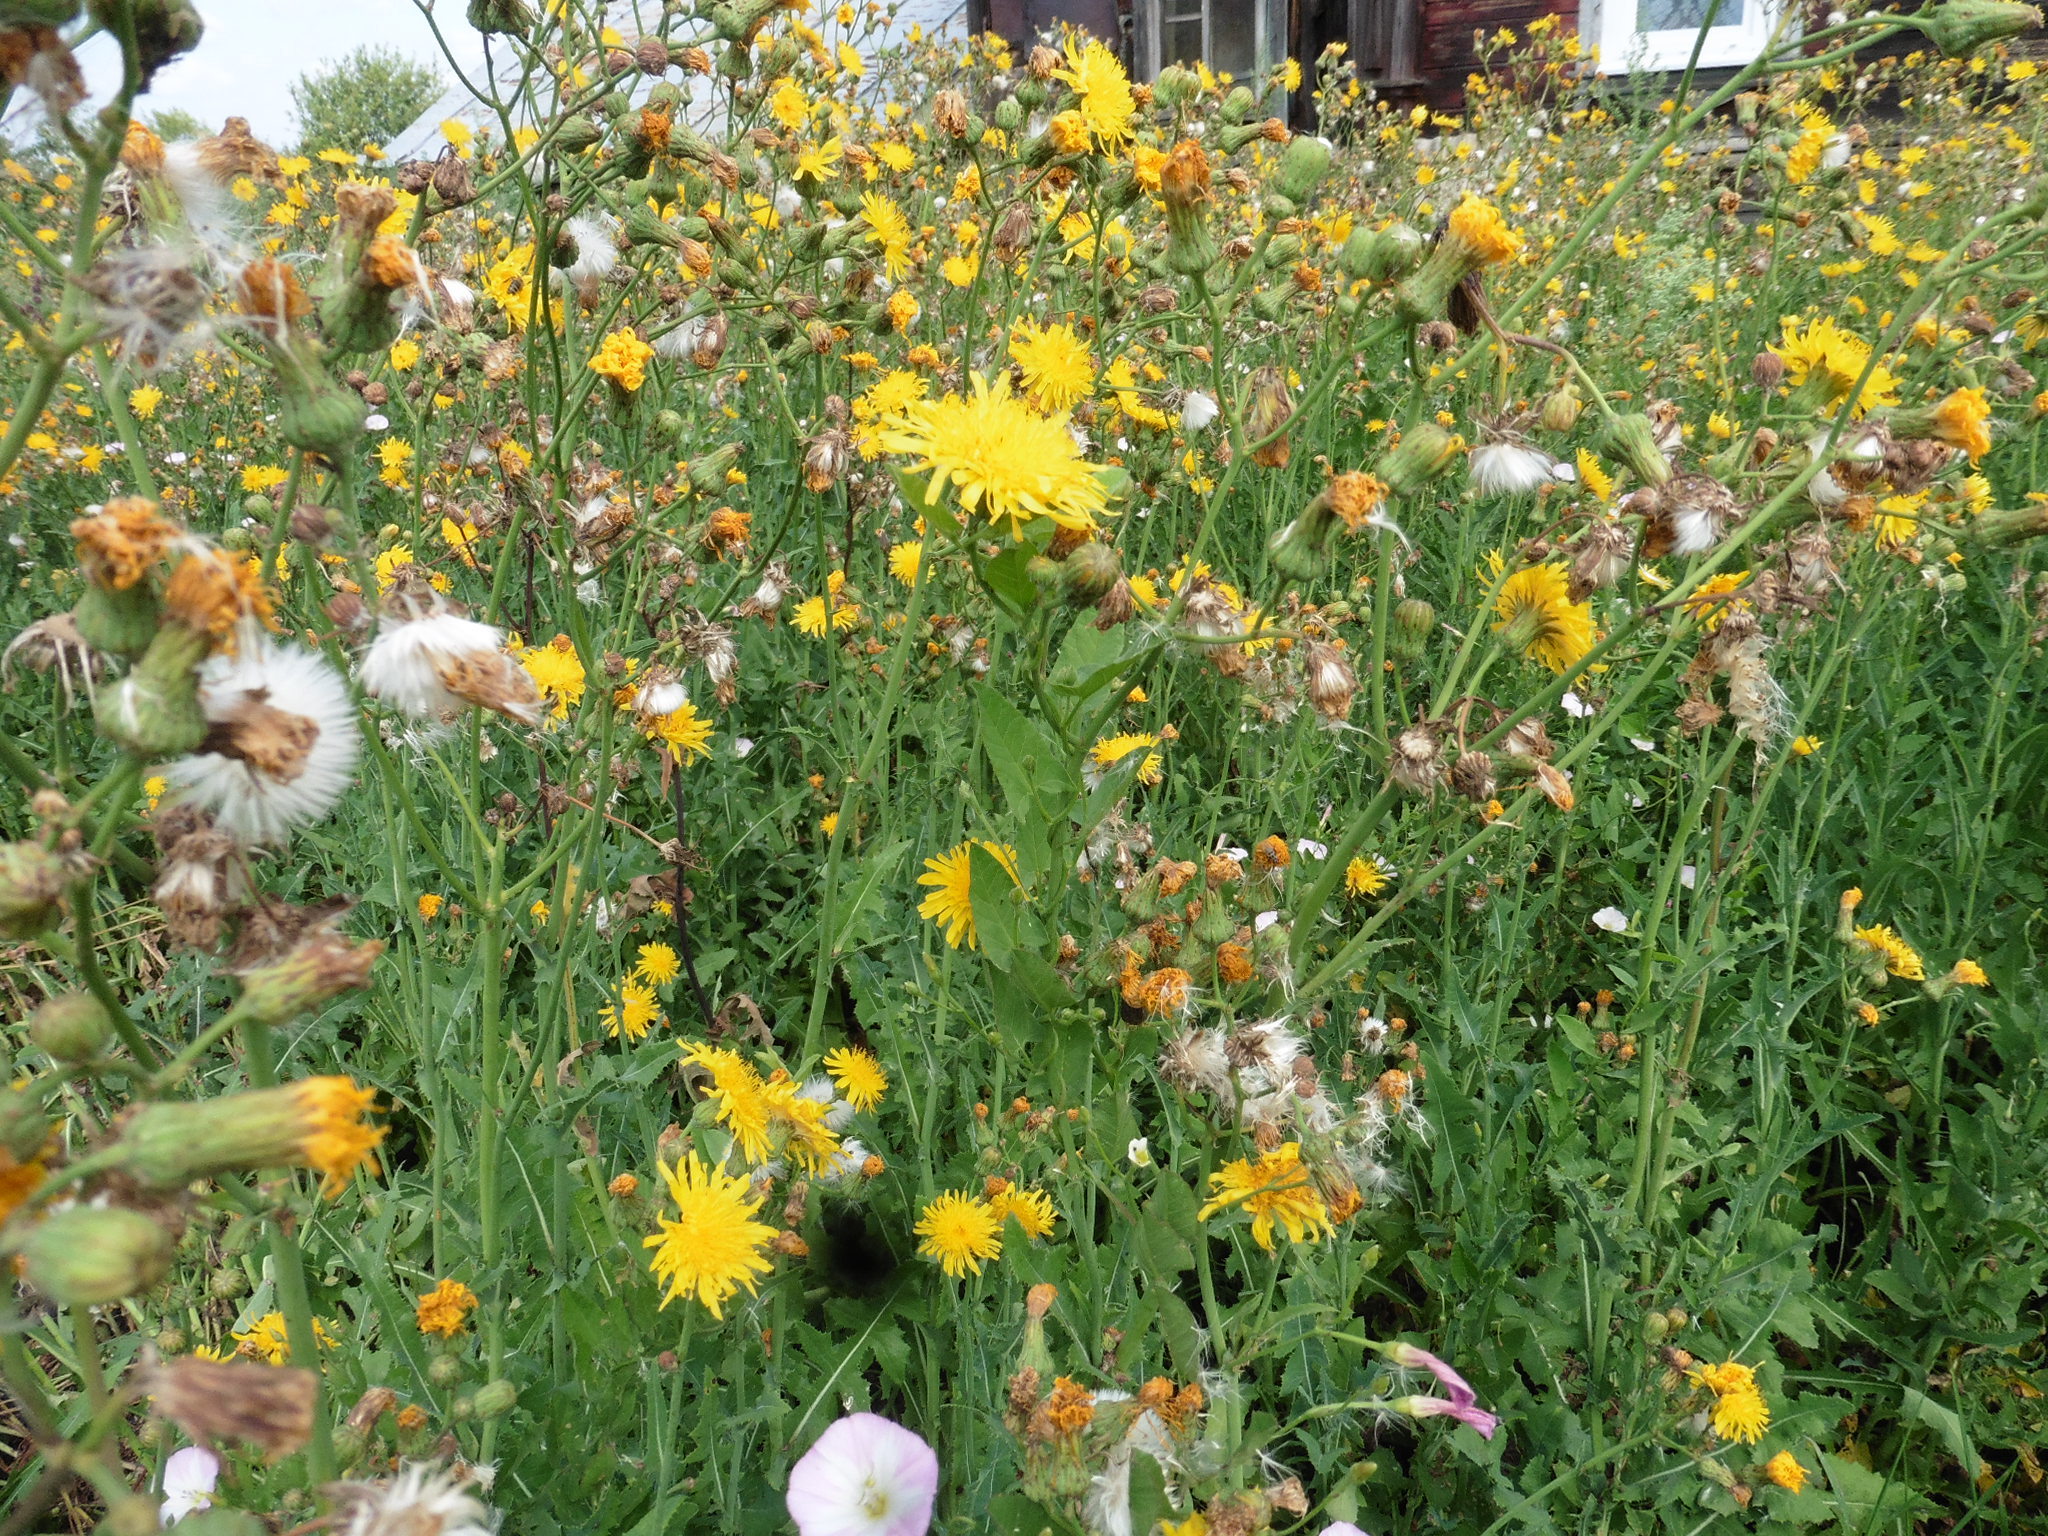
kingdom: Plantae
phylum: Tracheophyta
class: Magnoliopsida
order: Asterales
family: Asteraceae
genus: Sonchus
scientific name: Sonchus arvensis
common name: Perennial sow-thistle
